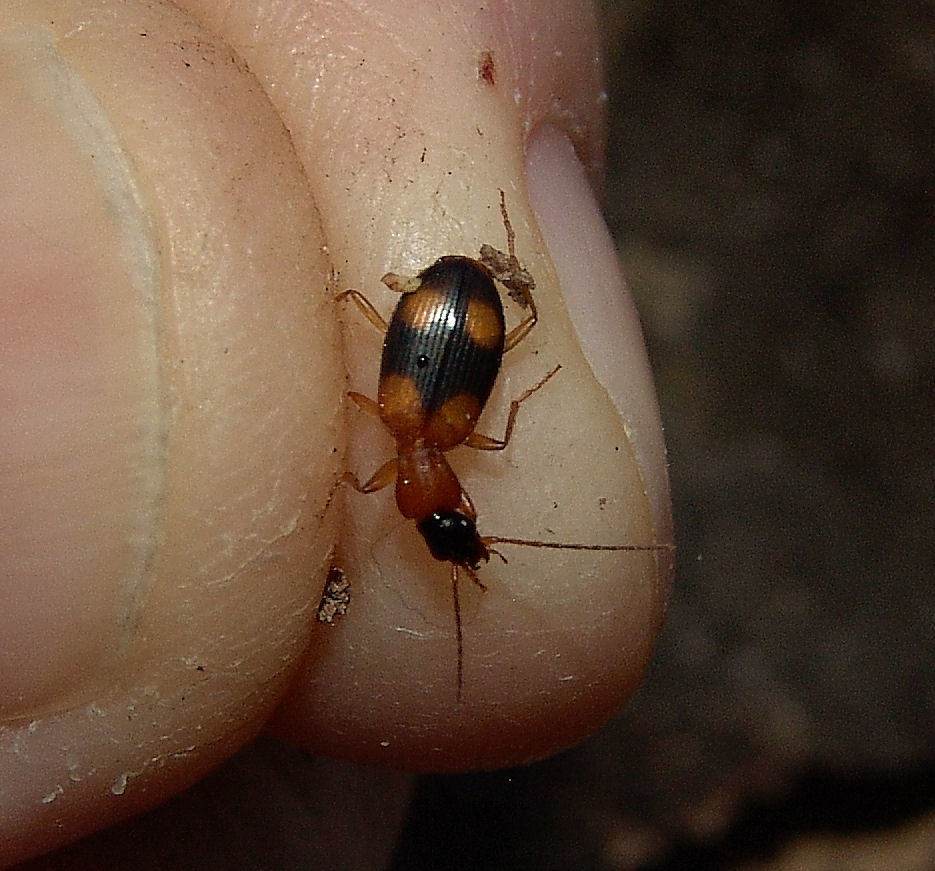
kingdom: Animalia
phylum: Arthropoda
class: Insecta
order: Coleoptera
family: Carabidae
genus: Agonum
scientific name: Agonum quadrimaculatum
